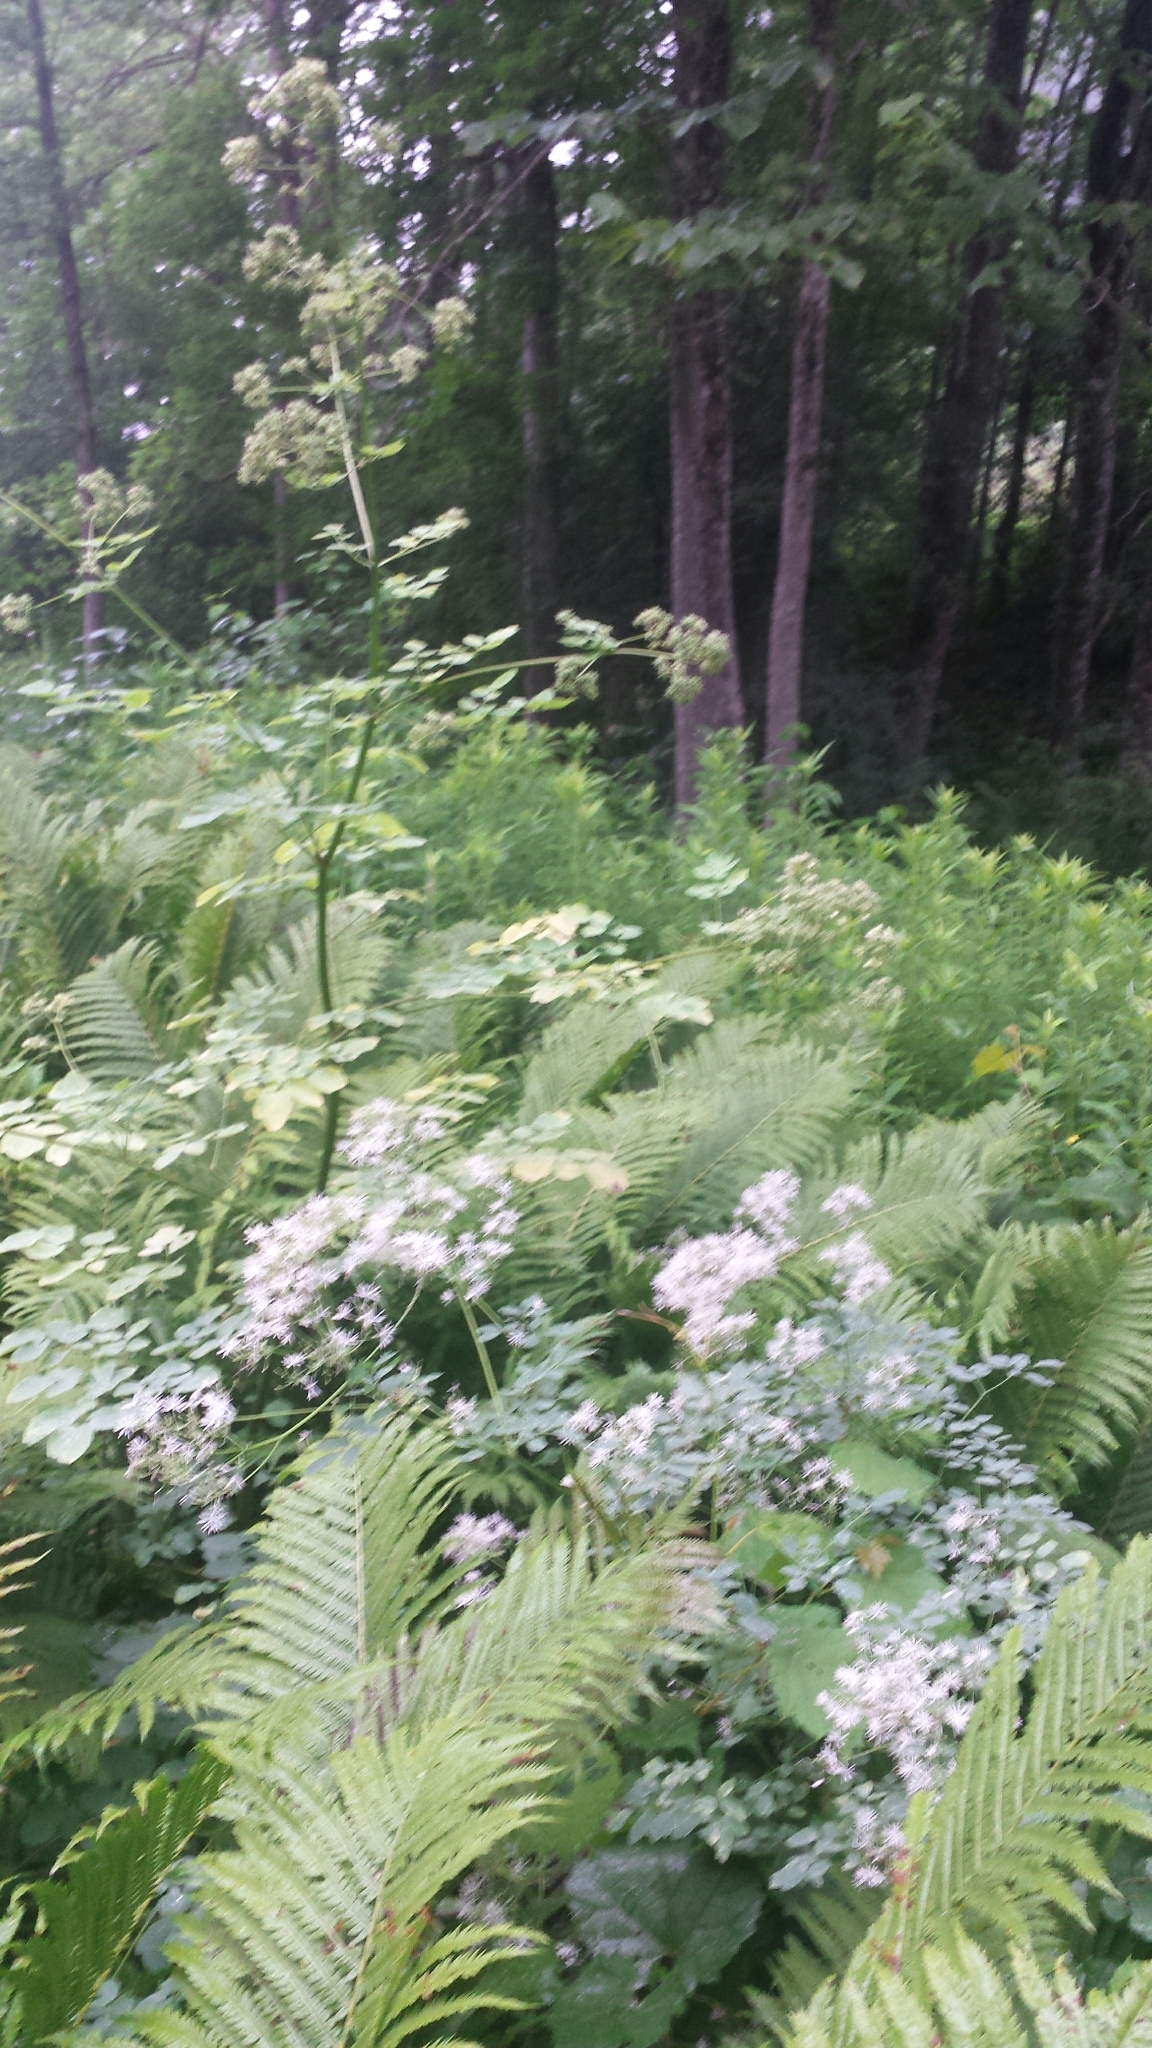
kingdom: Plantae
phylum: Tracheophyta
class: Magnoliopsida
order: Ranunculales
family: Ranunculaceae
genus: Thalictrum
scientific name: Thalictrum pubescens
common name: King-of-the-meadow
